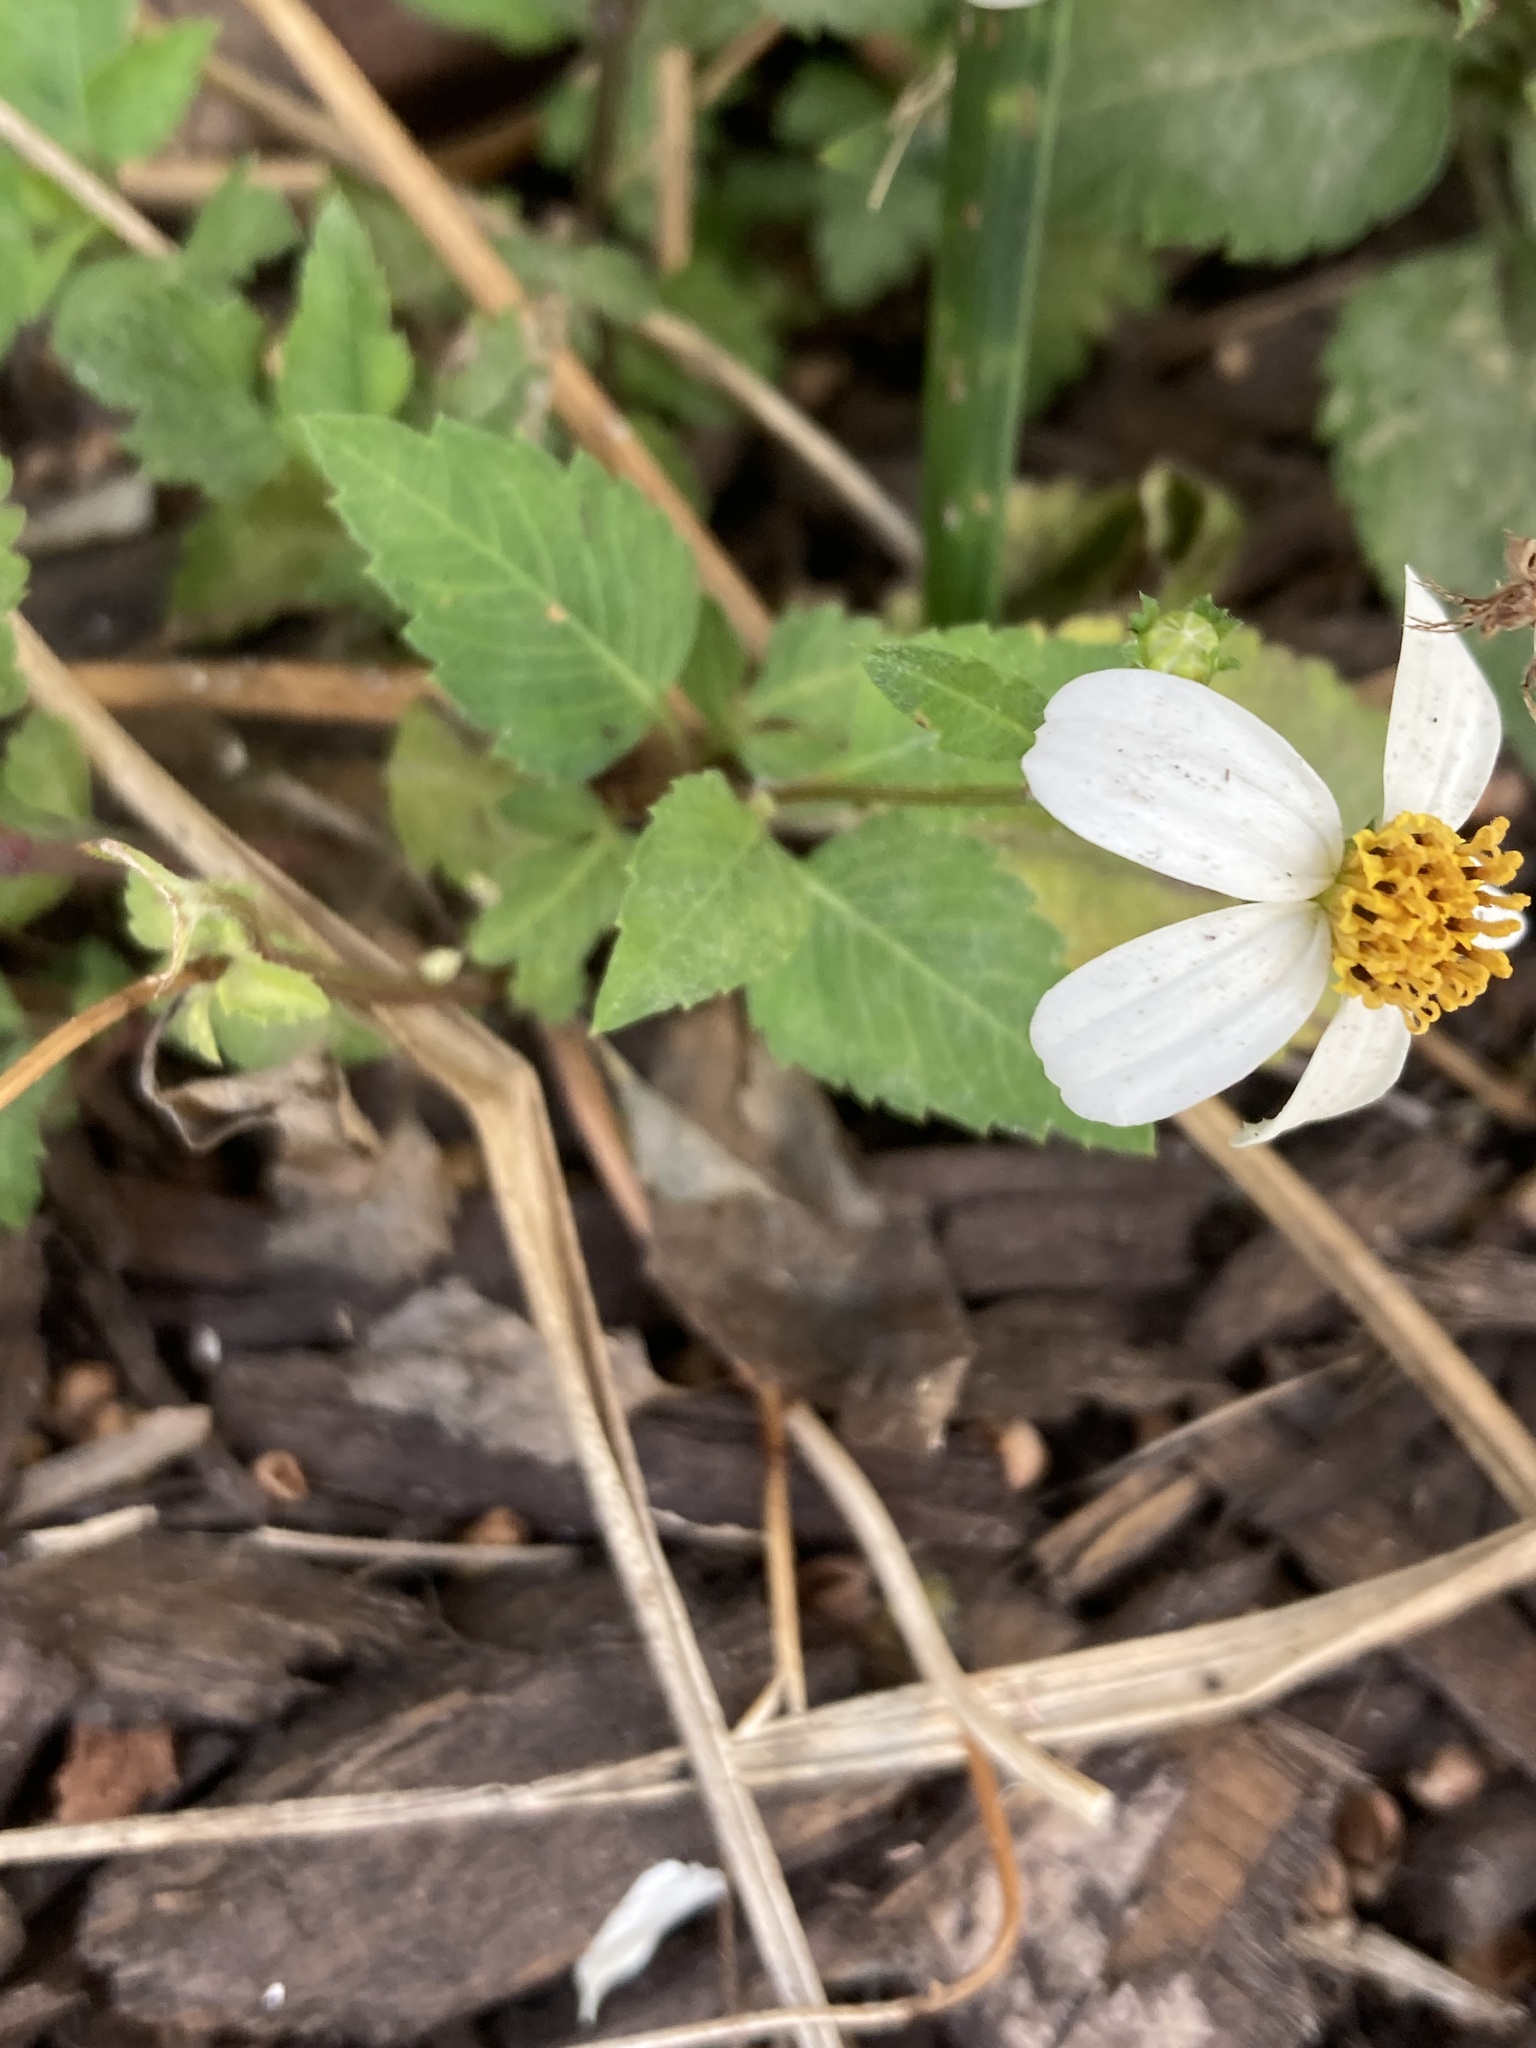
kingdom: Plantae
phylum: Tracheophyta
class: Magnoliopsida
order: Asterales
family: Asteraceae
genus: Bidens
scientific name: Bidens alba
